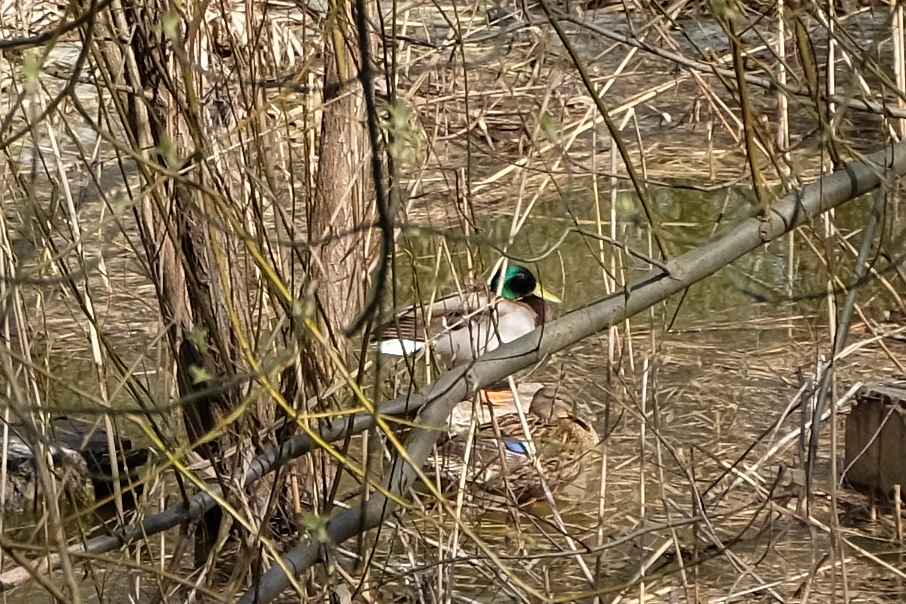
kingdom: Animalia
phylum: Chordata
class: Aves
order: Anseriformes
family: Anatidae
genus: Anas
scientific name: Anas platyrhynchos
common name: Mallard
